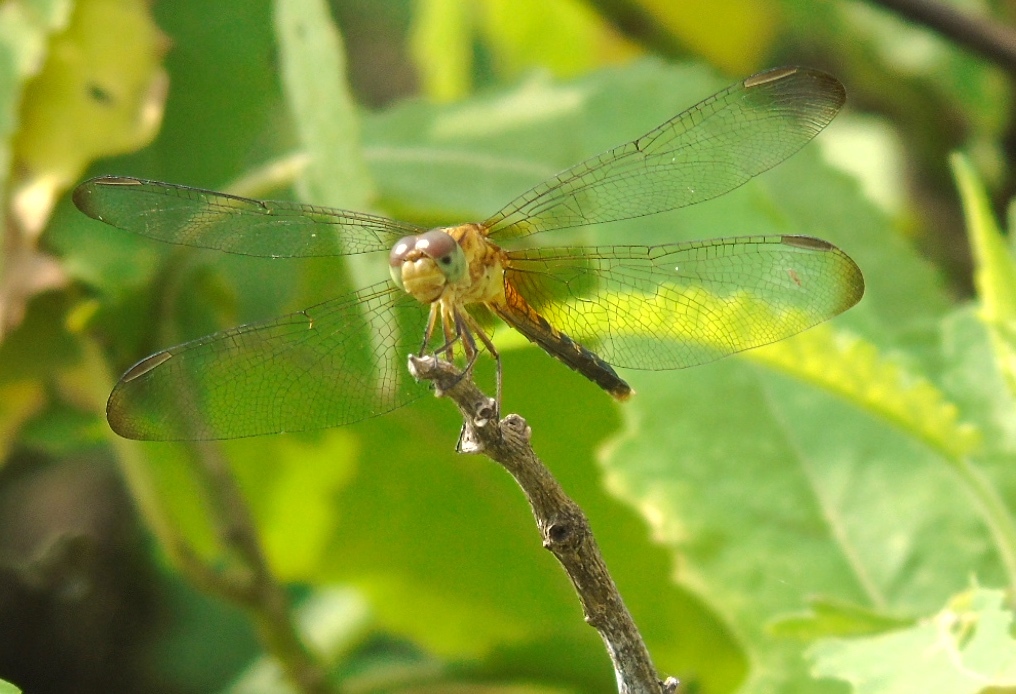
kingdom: Animalia
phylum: Arthropoda
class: Insecta
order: Odonata
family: Libellulidae
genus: Erythrodiplax
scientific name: Erythrodiplax
